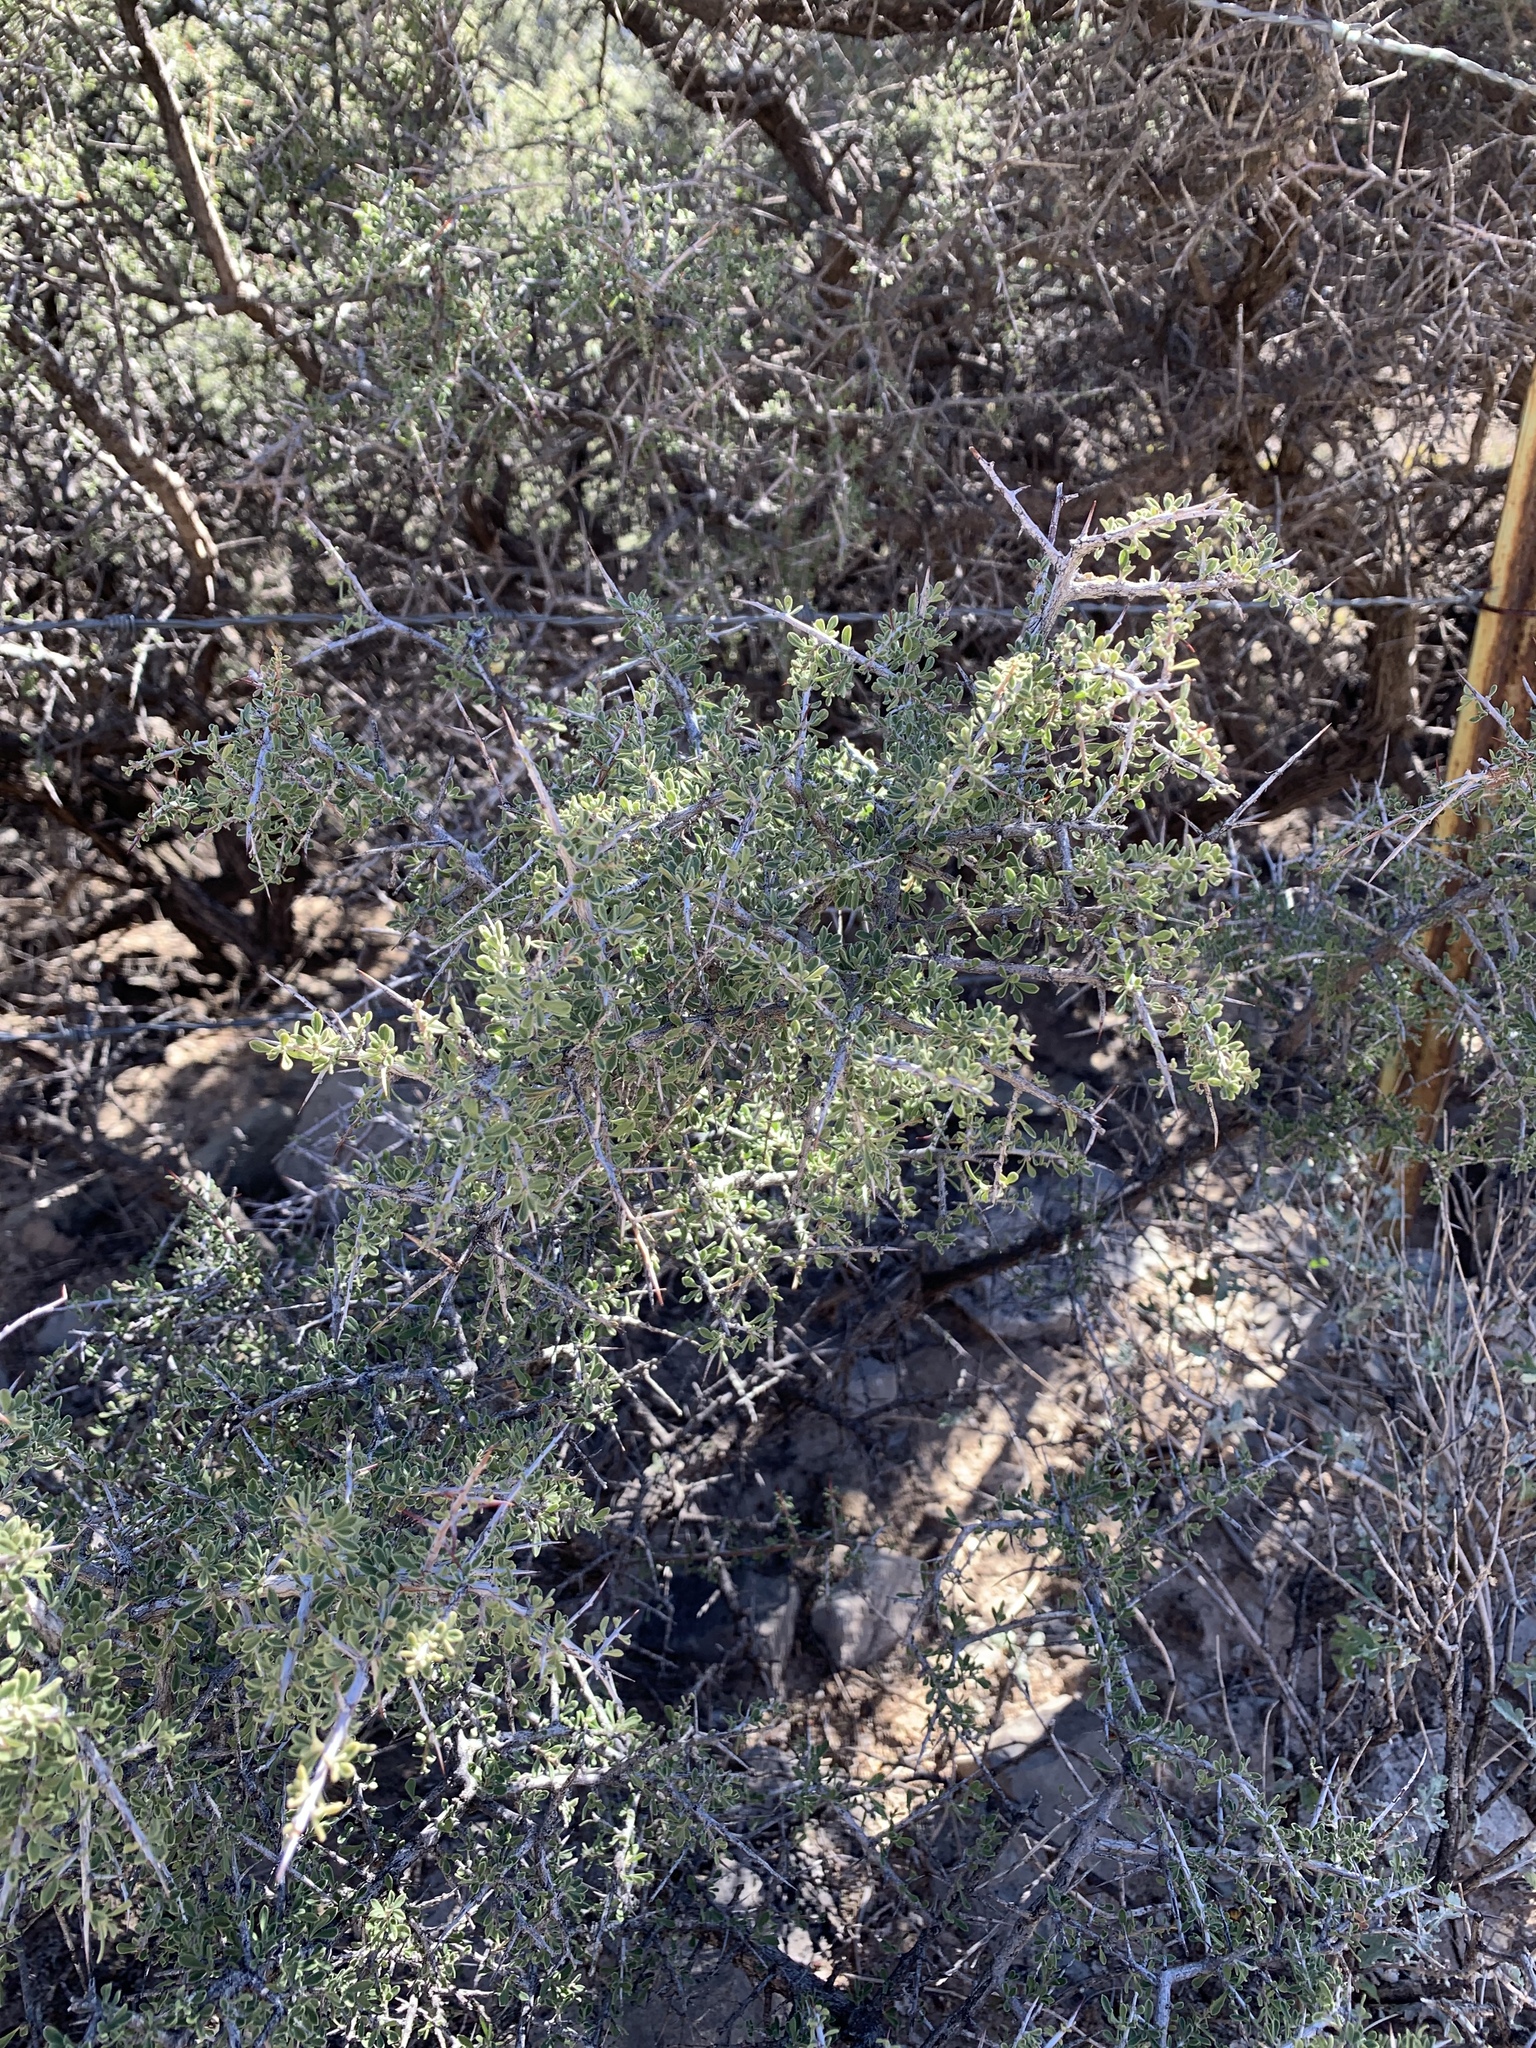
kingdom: Plantae
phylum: Tracheophyta
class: Magnoliopsida
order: Rosales
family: Rhamnaceae
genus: Condalia
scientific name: Condalia warnockii
